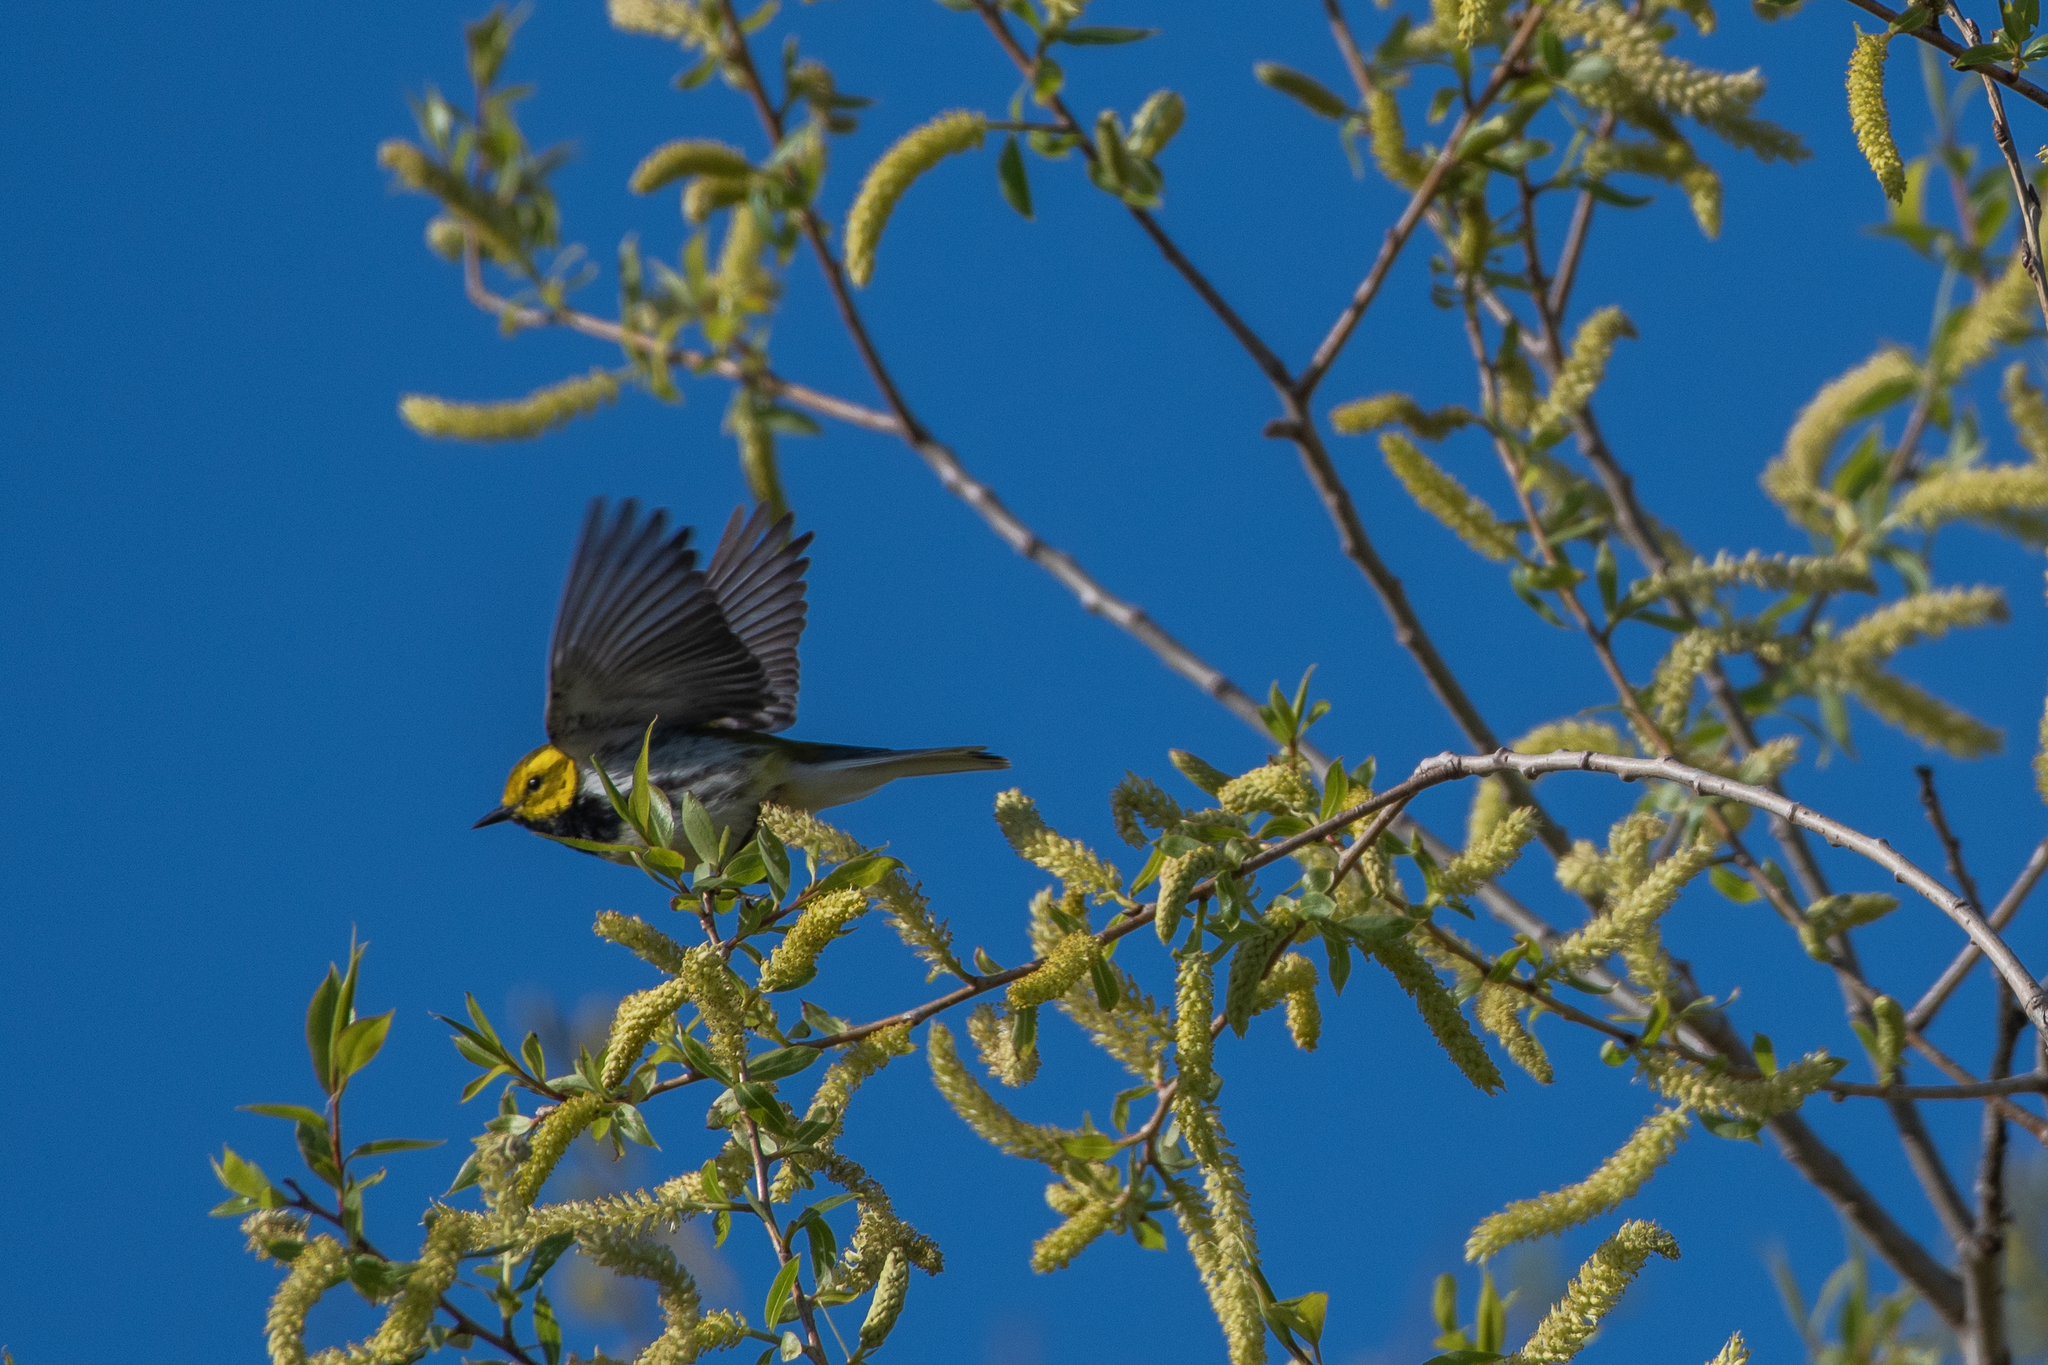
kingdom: Animalia
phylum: Chordata
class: Aves
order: Passeriformes
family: Parulidae
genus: Setophaga
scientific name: Setophaga virens
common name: Black-throated green warbler
